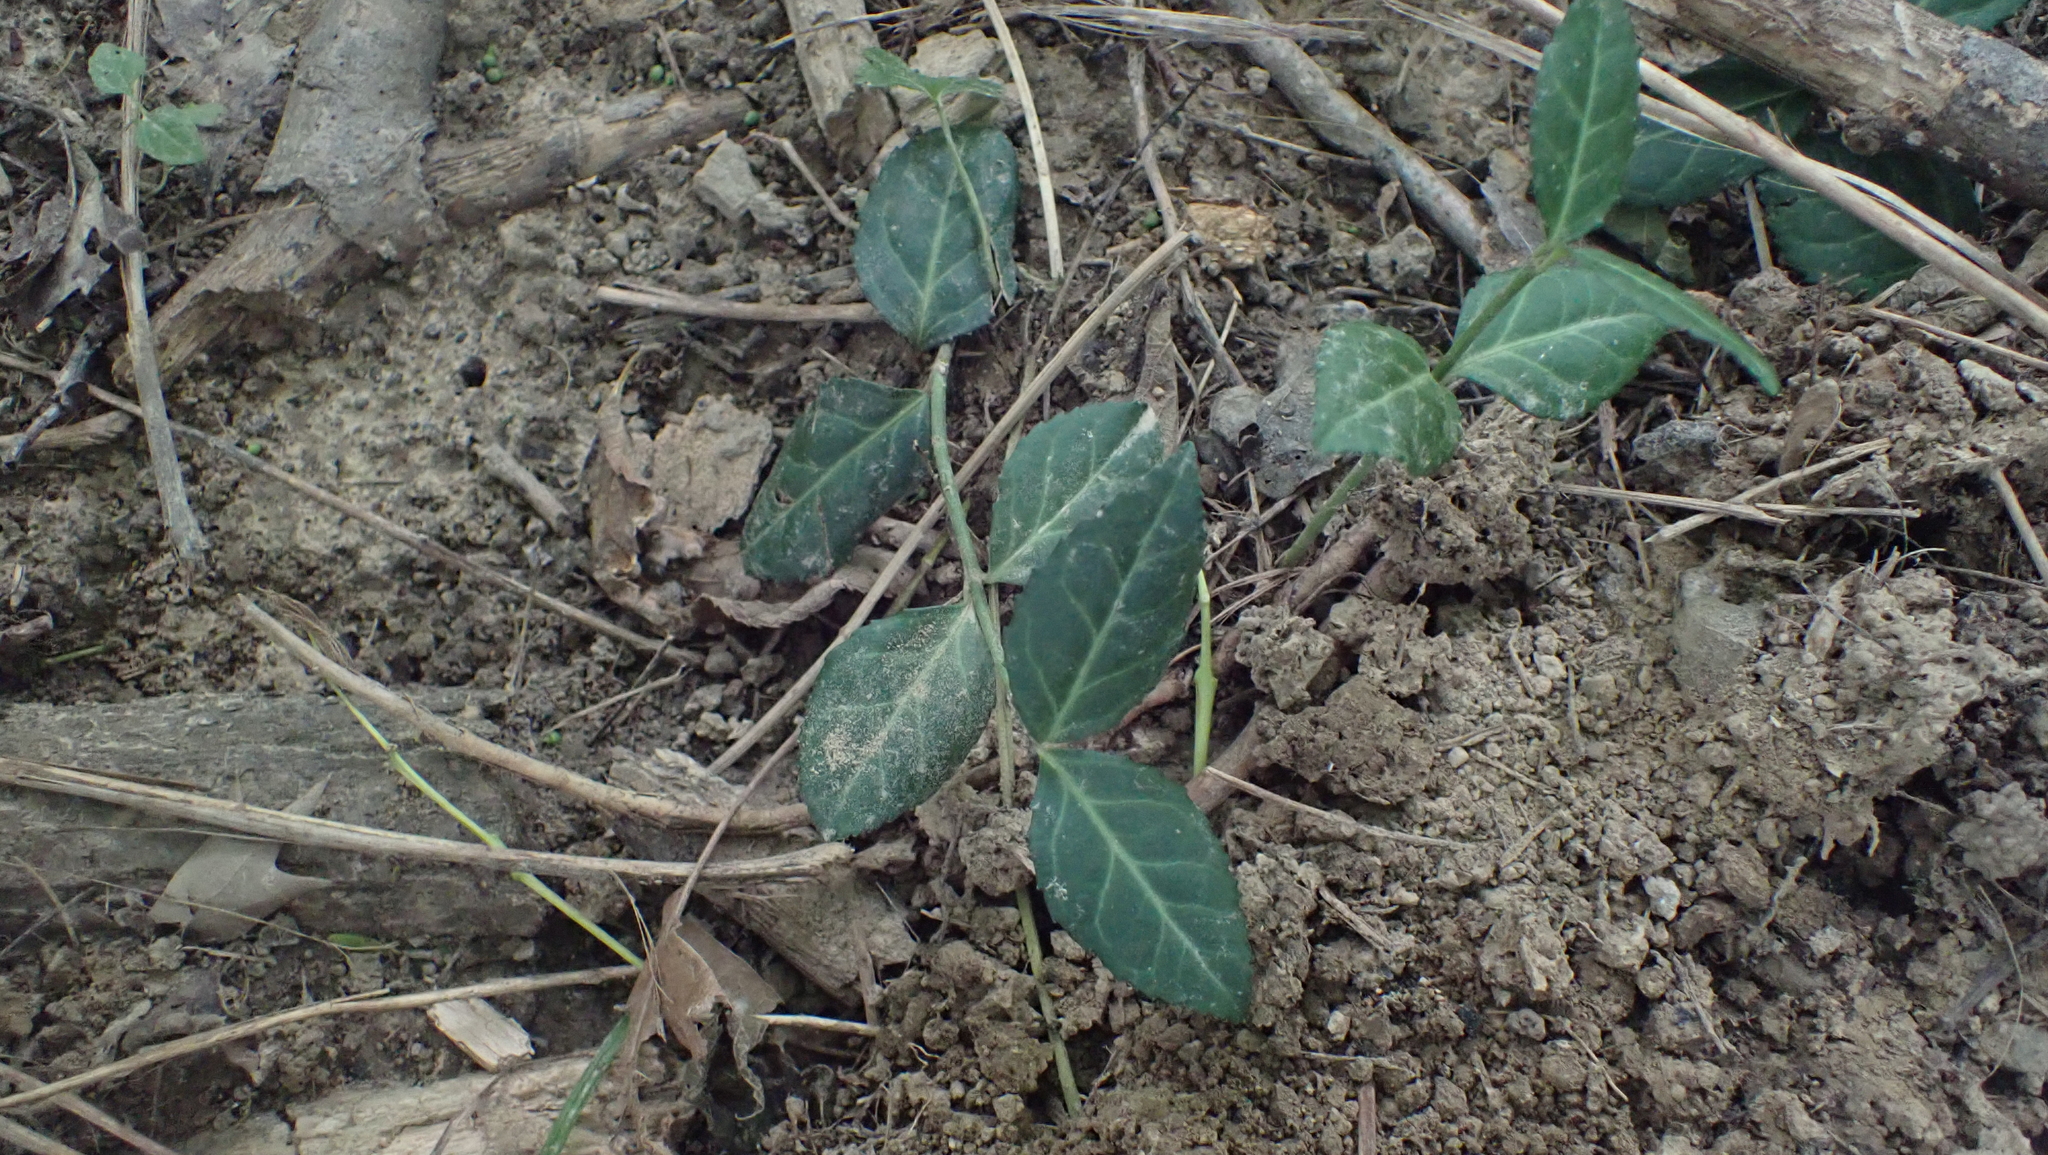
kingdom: Plantae
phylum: Tracheophyta
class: Magnoliopsida
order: Celastrales
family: Celastraceae
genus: Euonymus
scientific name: Euonymus fortunei
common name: Climbing euonymus
